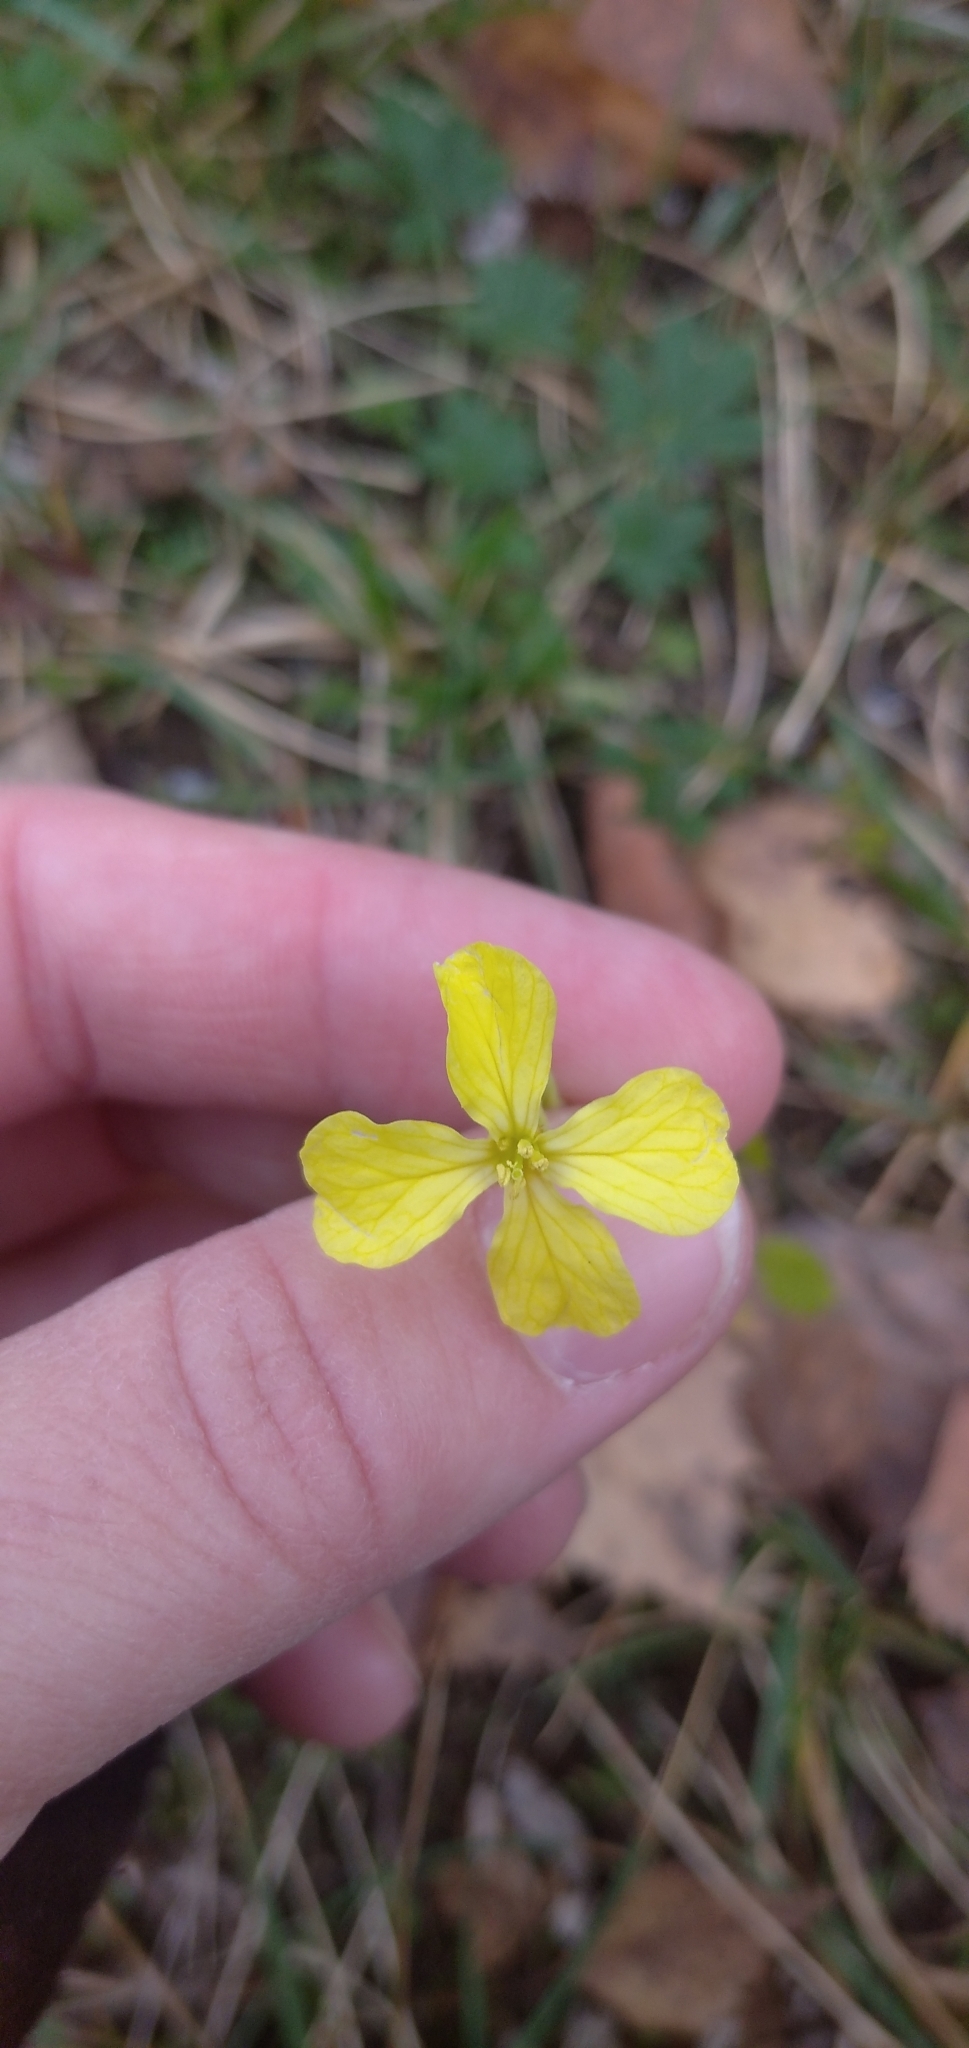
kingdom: Plantae
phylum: Tracheophyta
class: Magnoliopsida
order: Brassicales
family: Brassicaceae
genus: Raphanus
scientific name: Raphanus raphanistrum
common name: Wild radish
